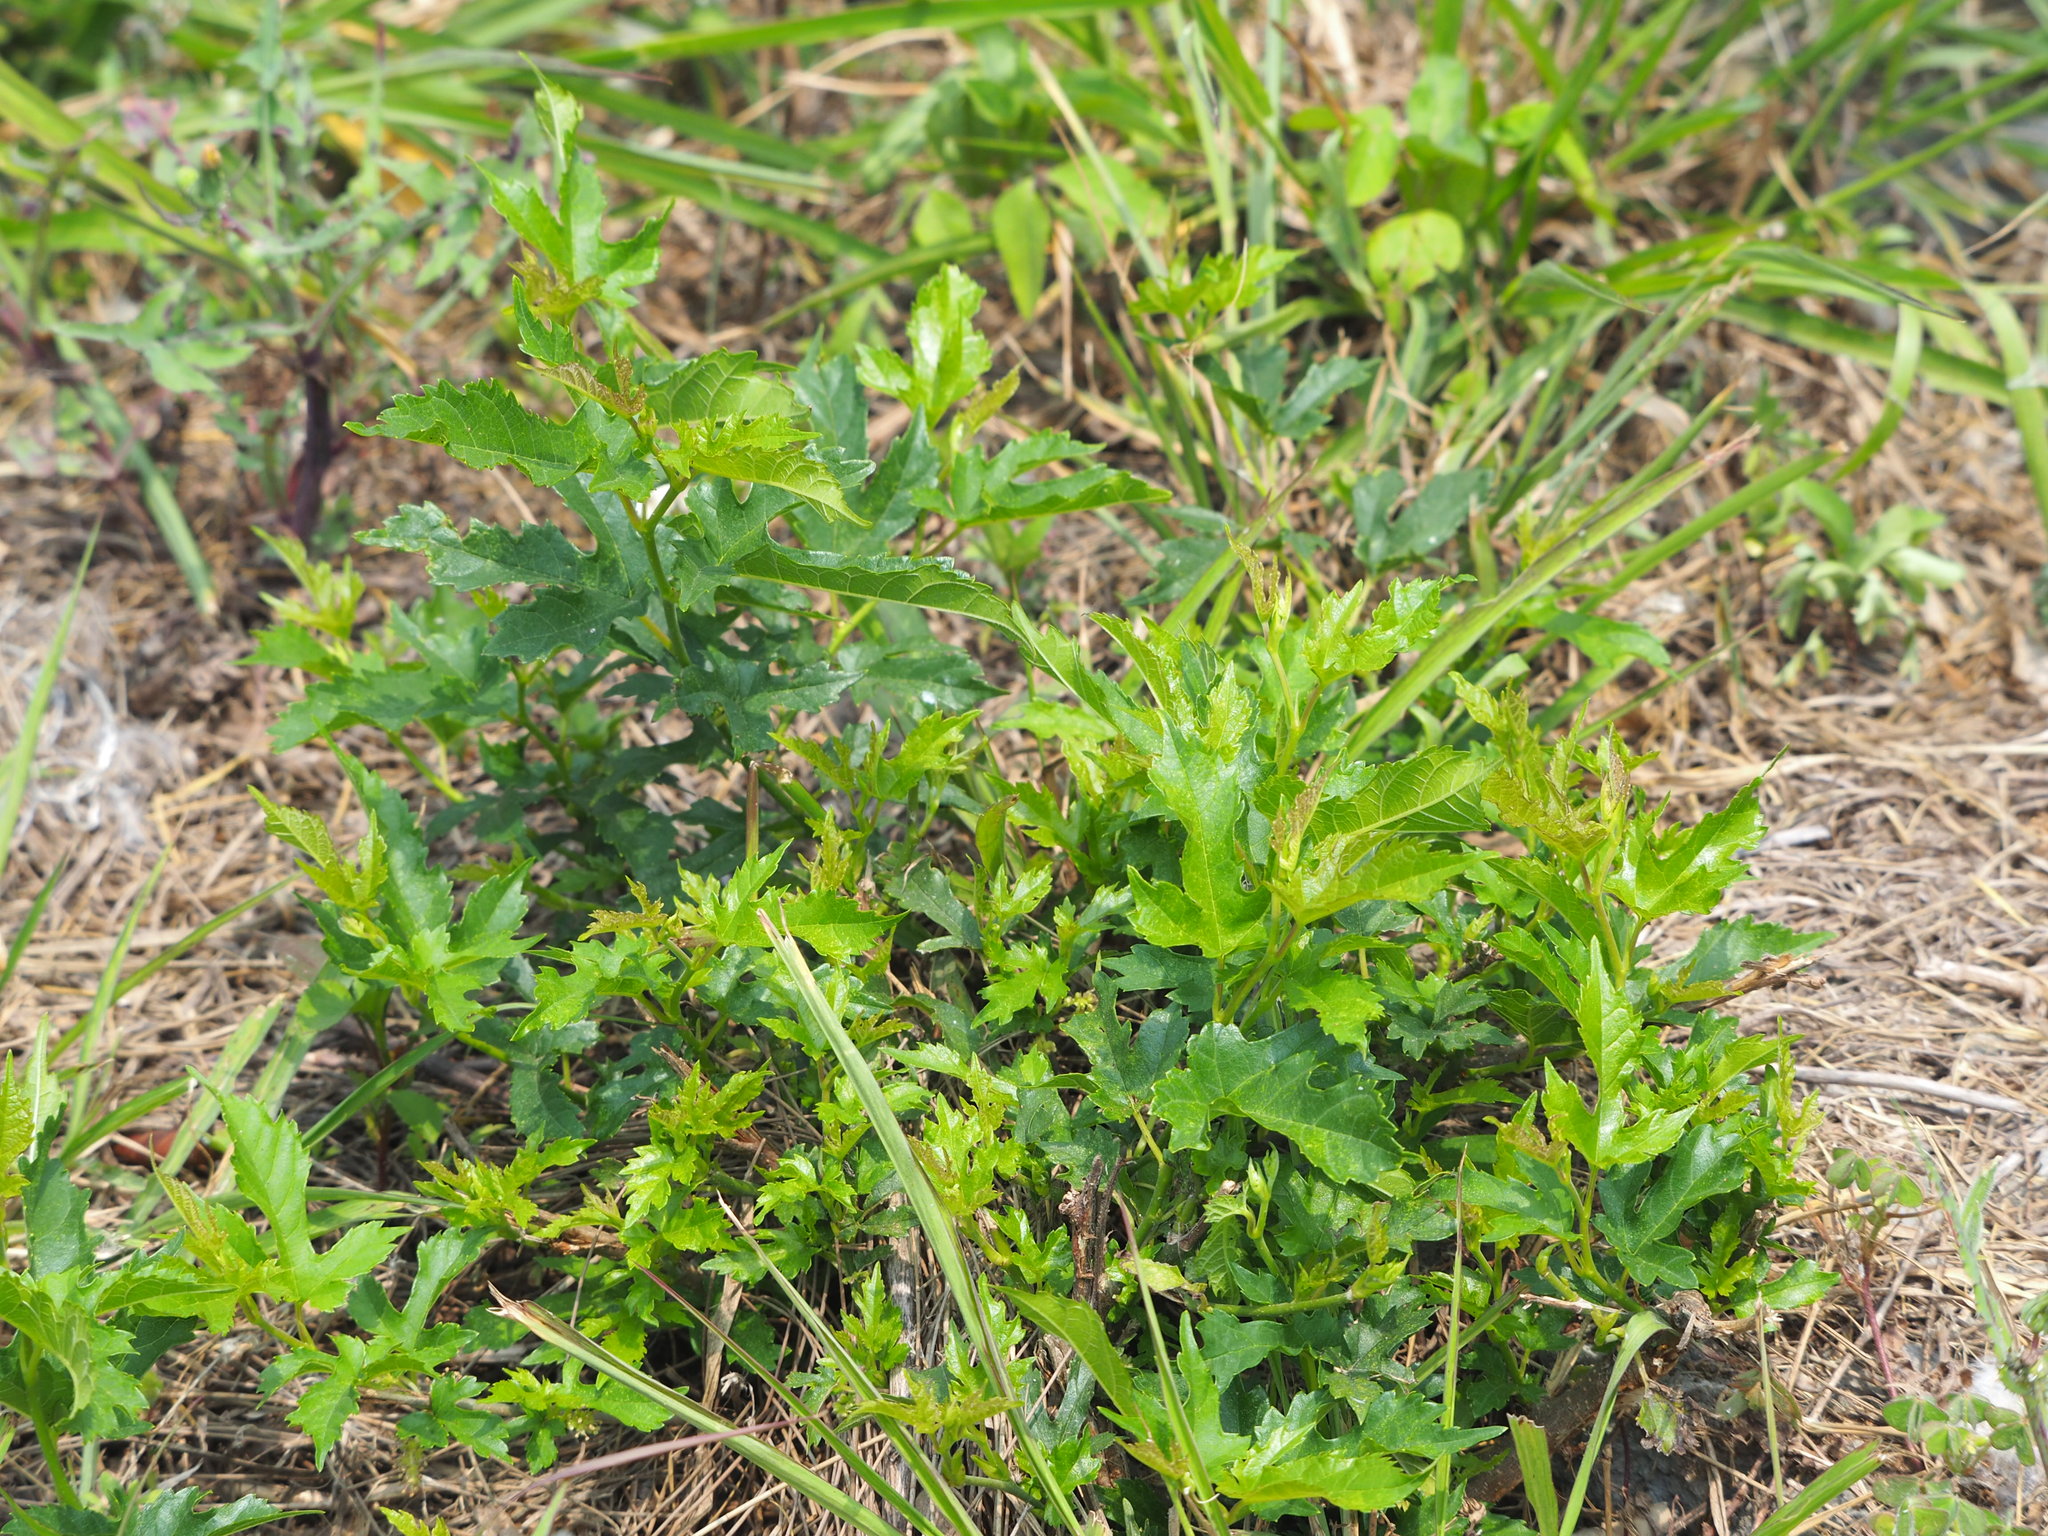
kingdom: Plantae
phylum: Tracheophyta
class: Magnoliopsida
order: Rosales
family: Moraceae
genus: Morus
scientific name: Morus indica
